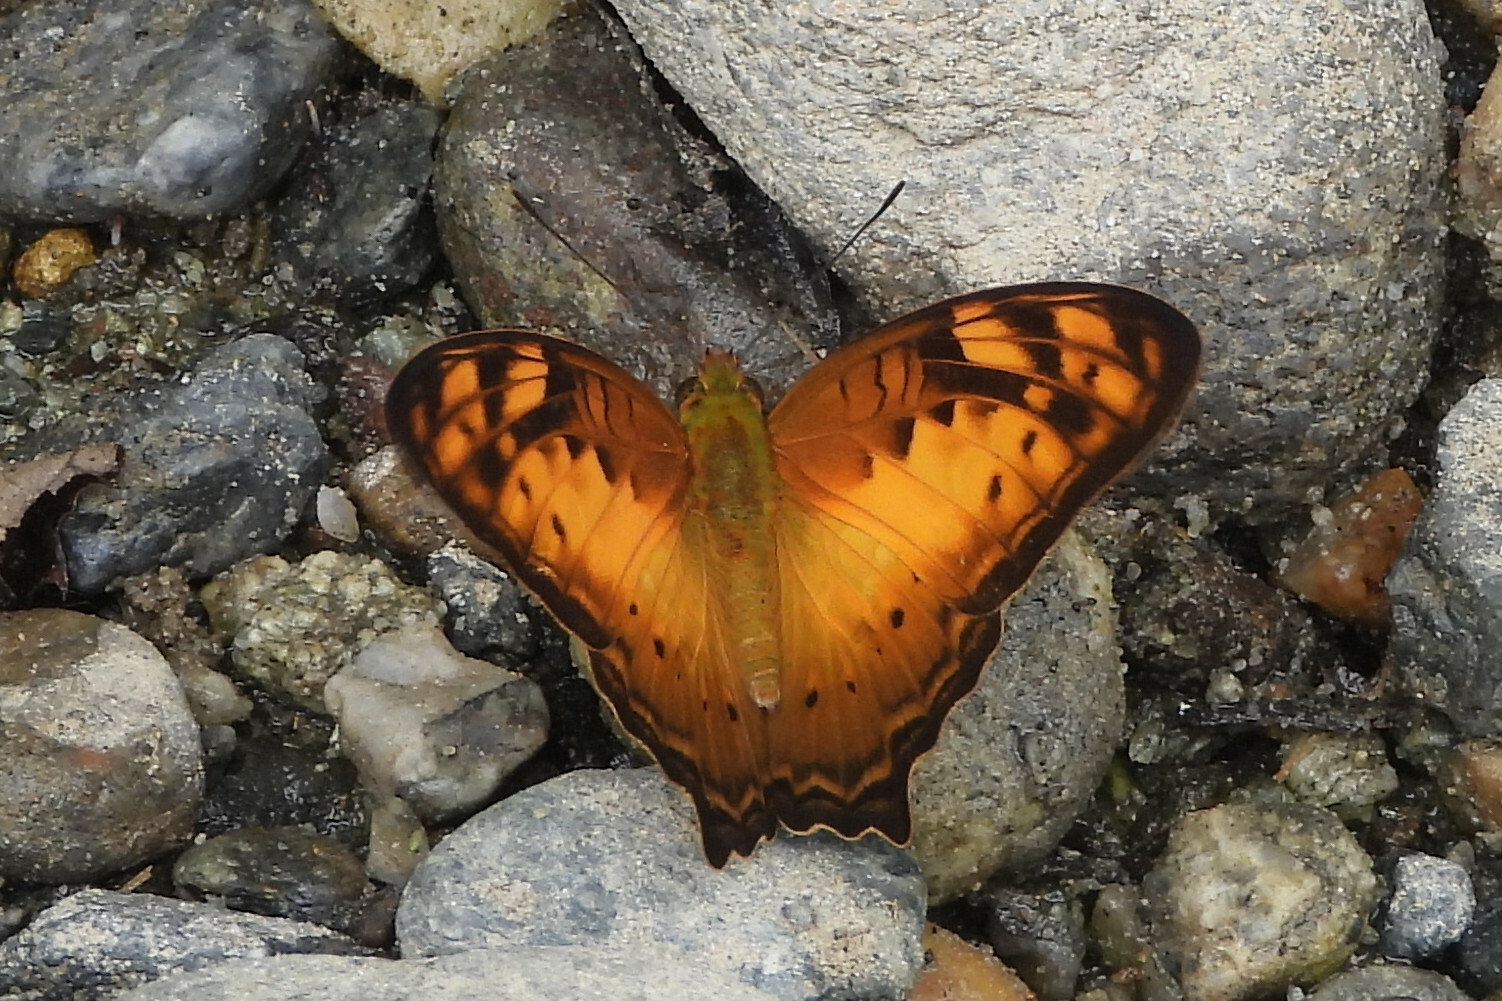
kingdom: Animalia
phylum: Arthropoda
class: Insecta
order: Lepidoptera
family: Nymphalidae
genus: Vagrans
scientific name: Vagrans sinha
